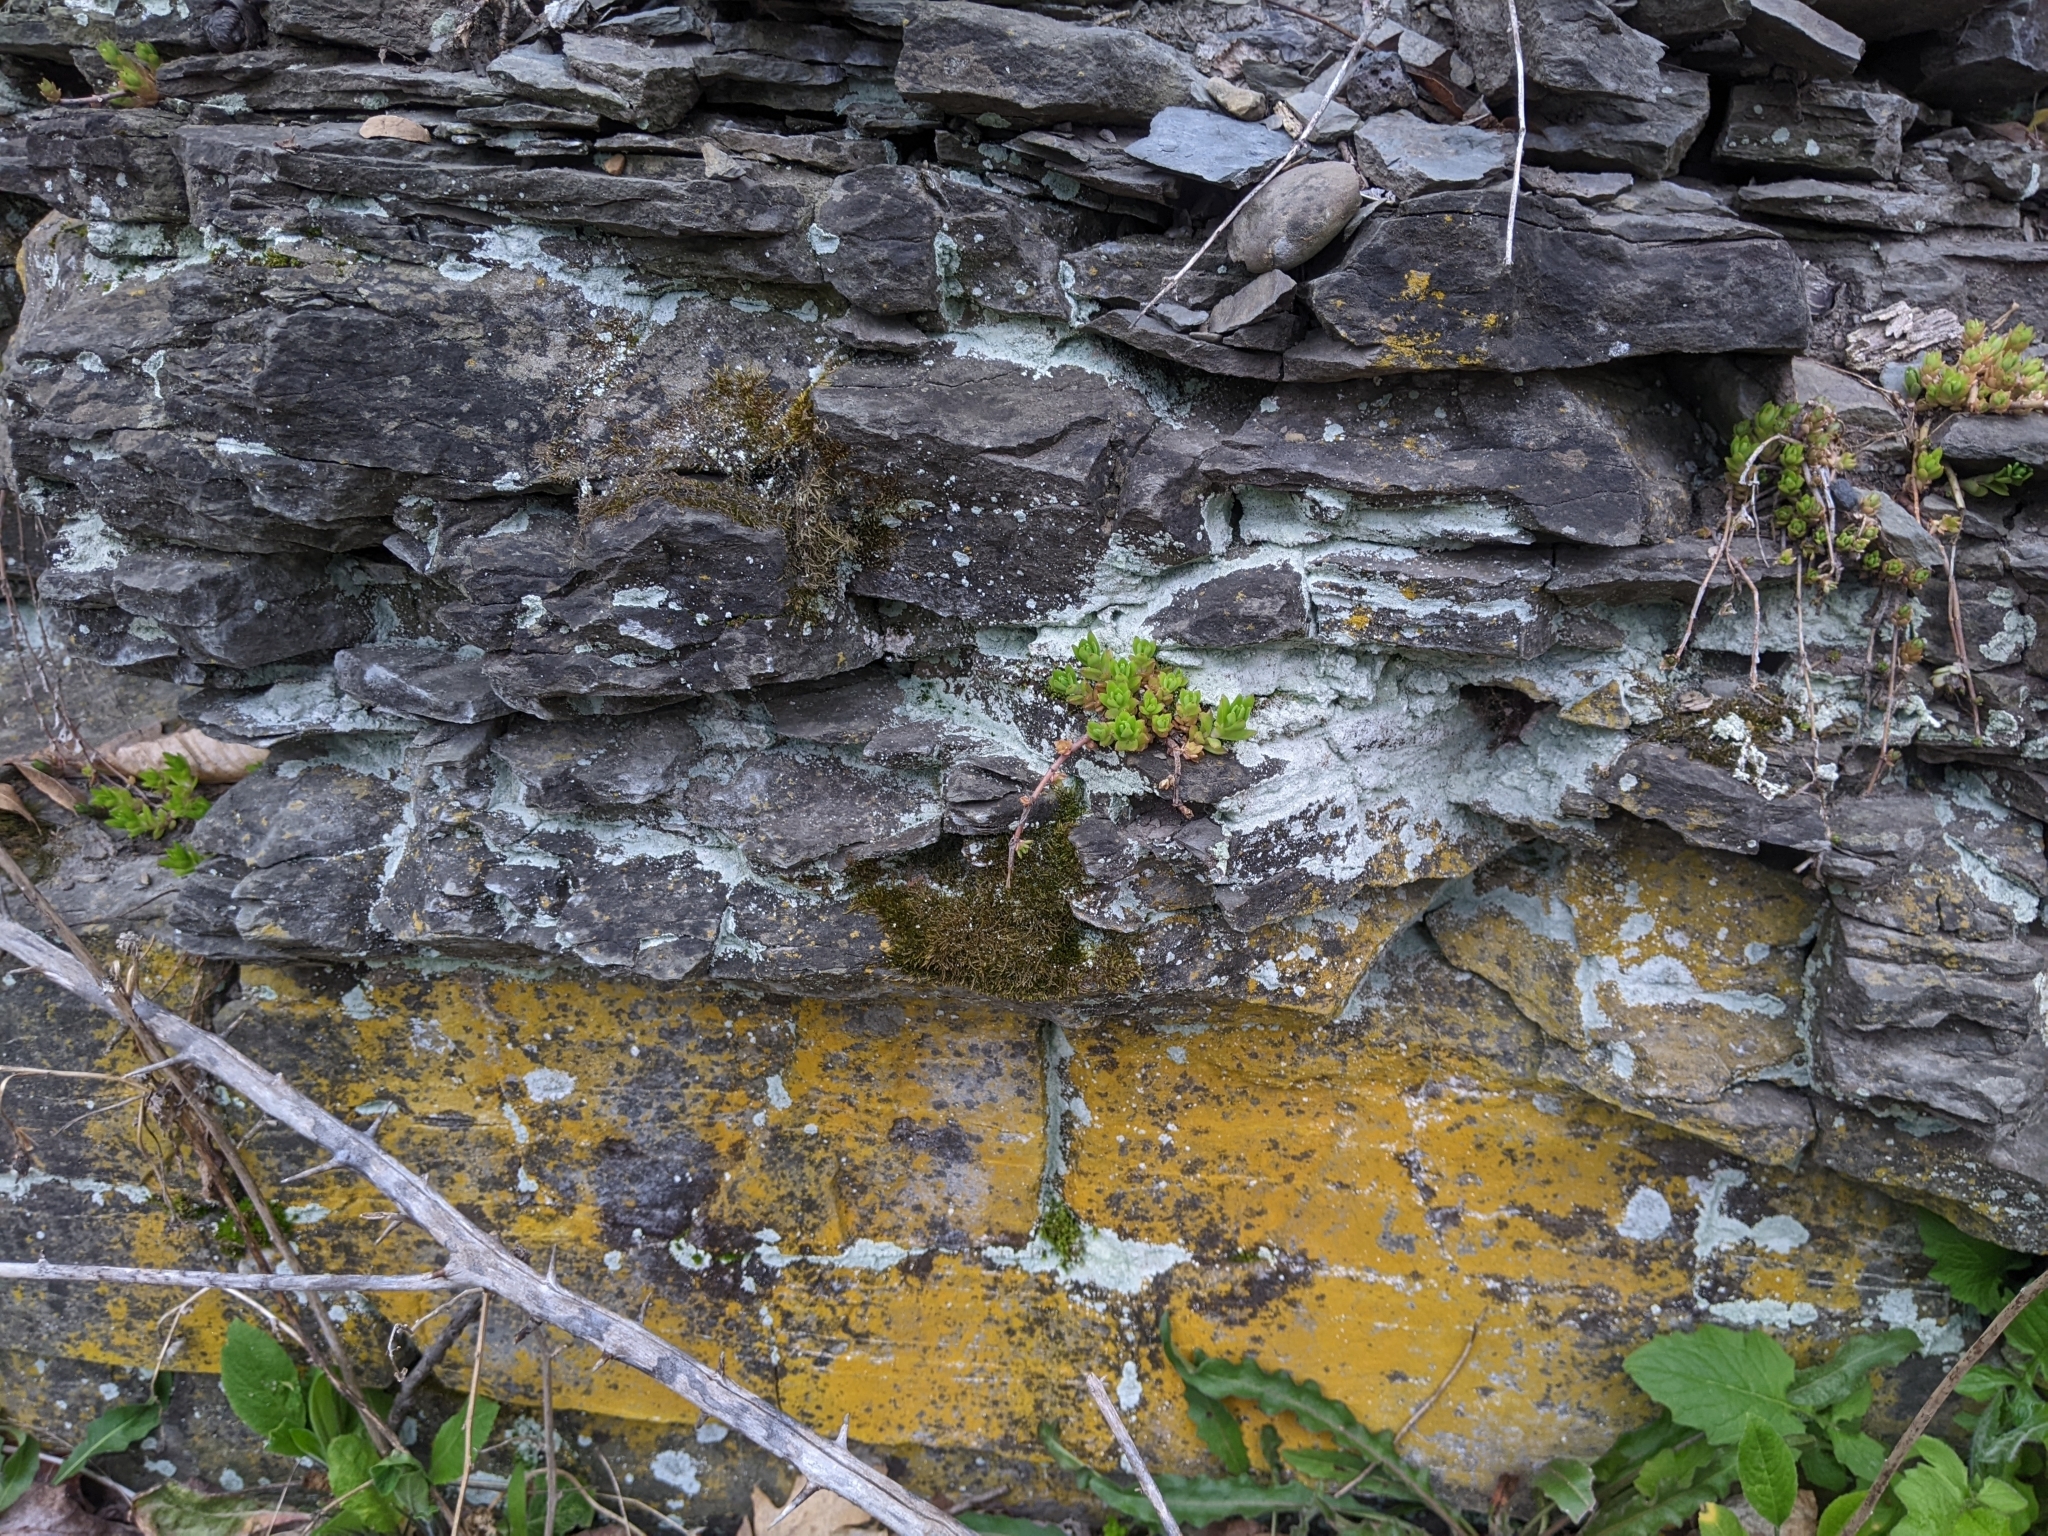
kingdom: Plantae
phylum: Tracheophyta
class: Magnoliopsida
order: Saxifragales
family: Crassulaceae
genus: Sedum
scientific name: Sedum sarmentosum
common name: Stringy stonecrop
